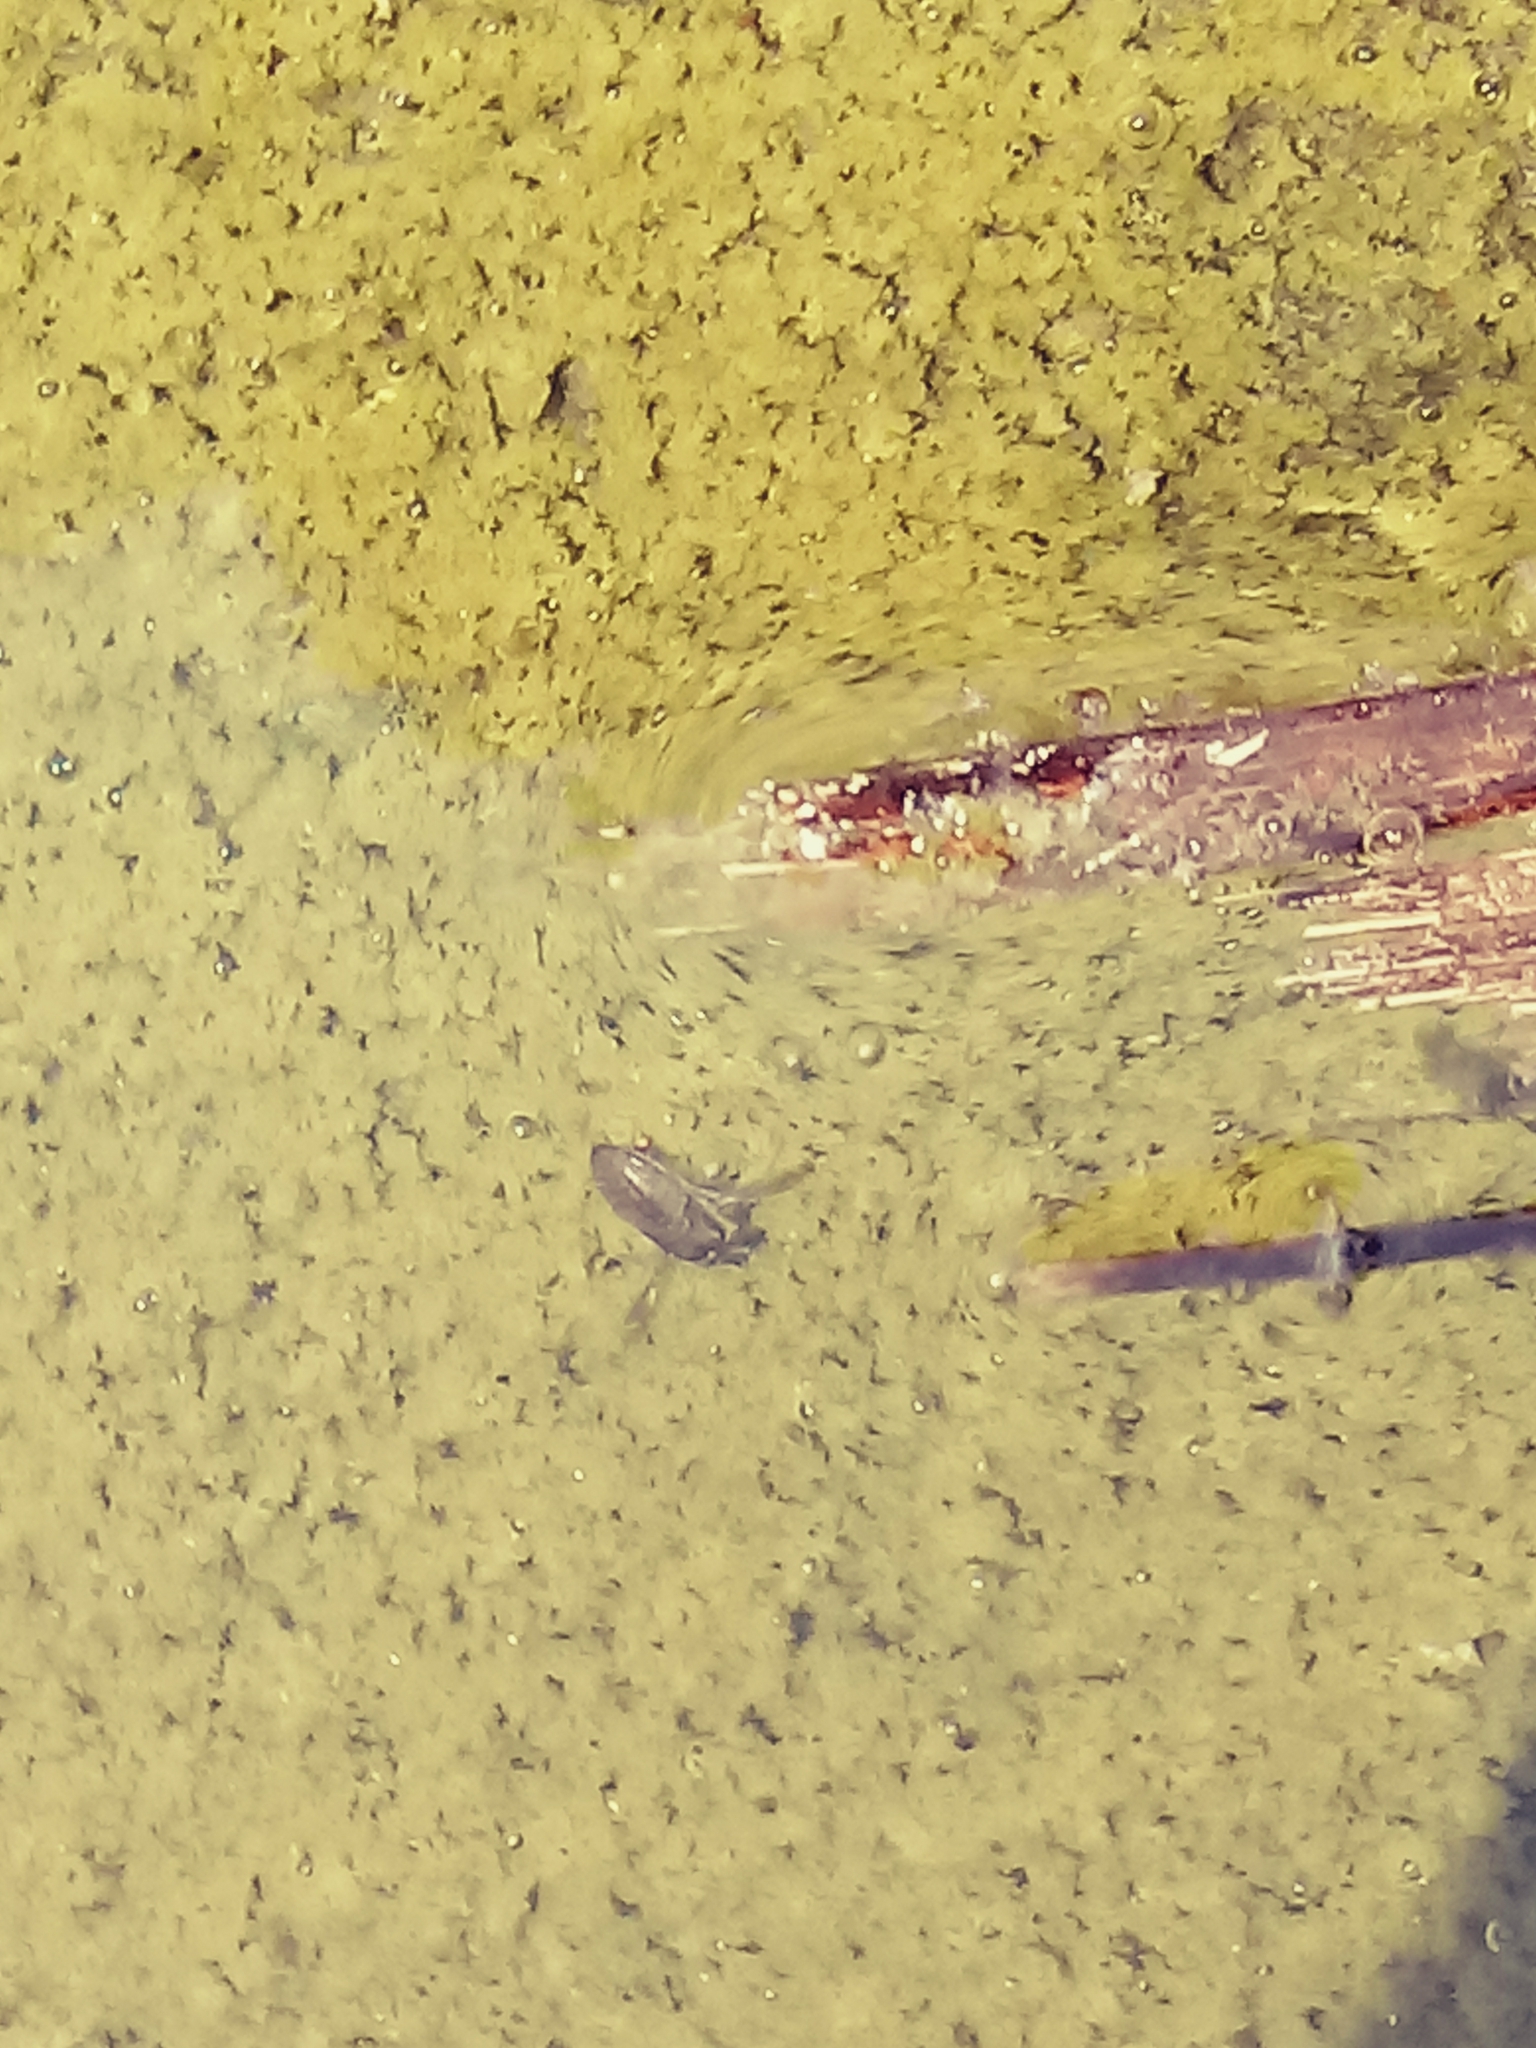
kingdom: Animalia
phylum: Arthropoda
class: Insecta
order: Hemiptera
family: Corixidae
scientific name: Corixidae
